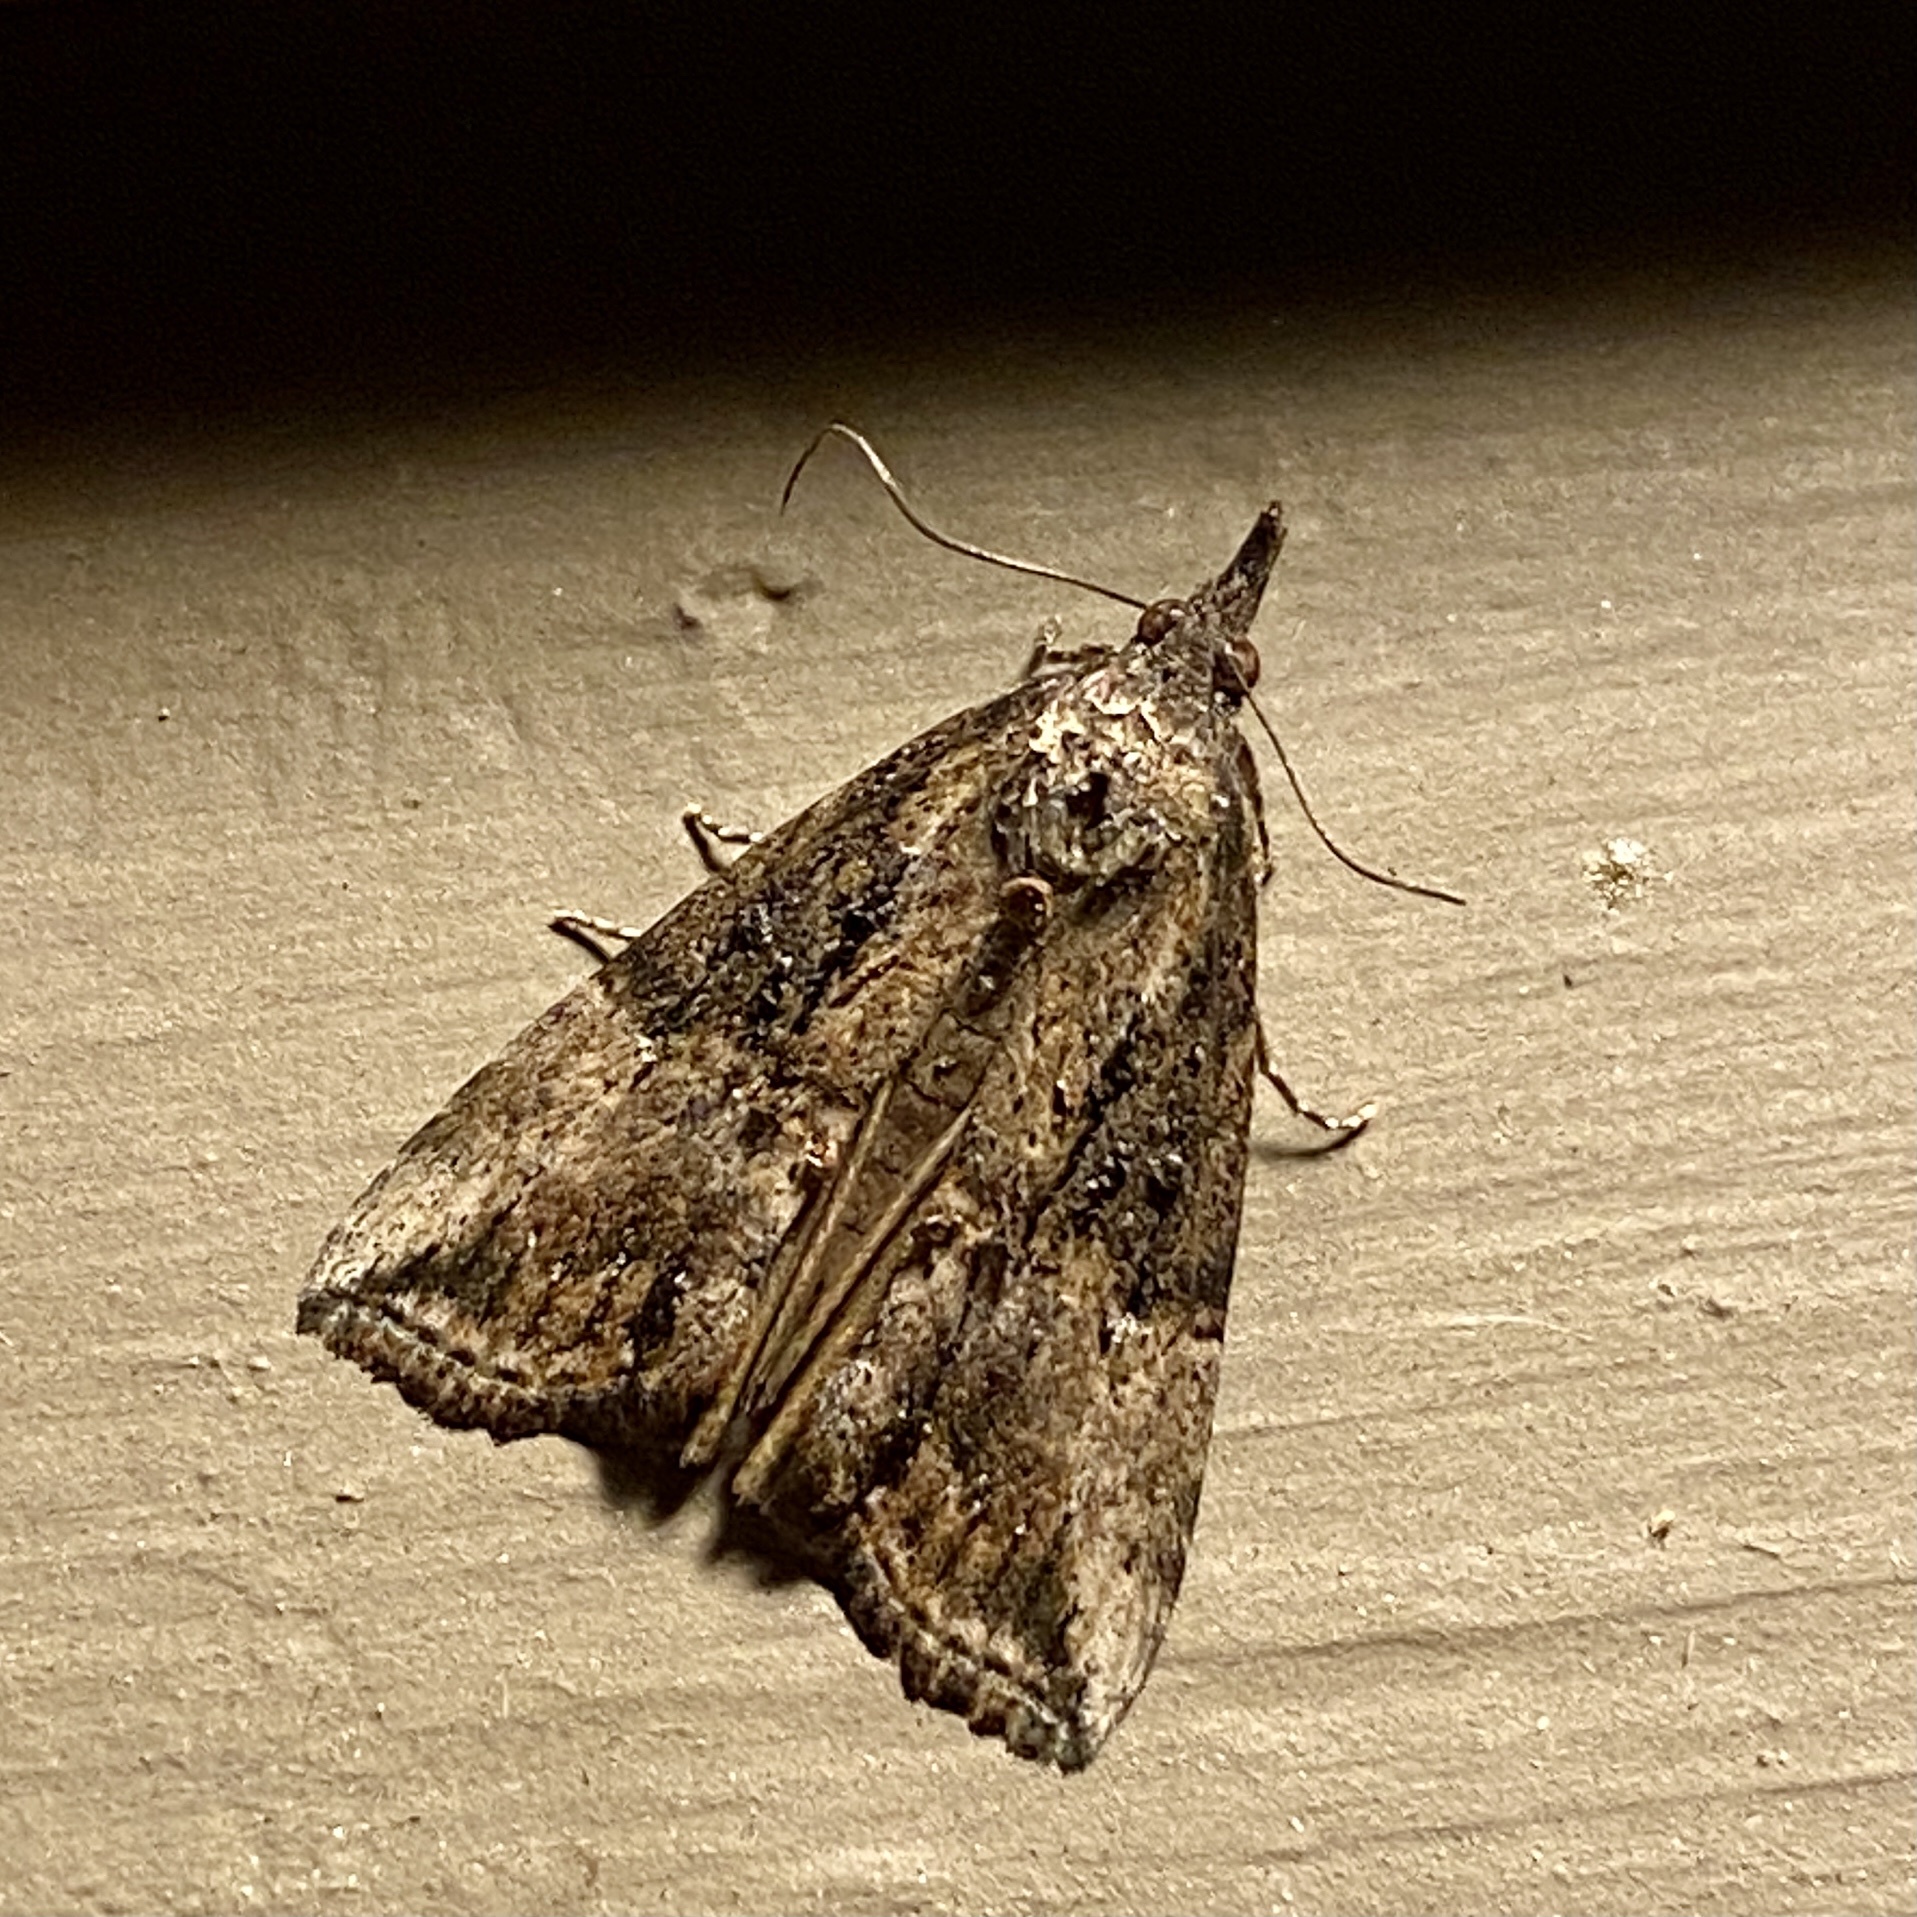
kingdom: Animalia
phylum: Arthropoda
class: Insecta
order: Lepidoptera
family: Erebidae
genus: Hypena
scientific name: Hypena scabra
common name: Green cloverworm
